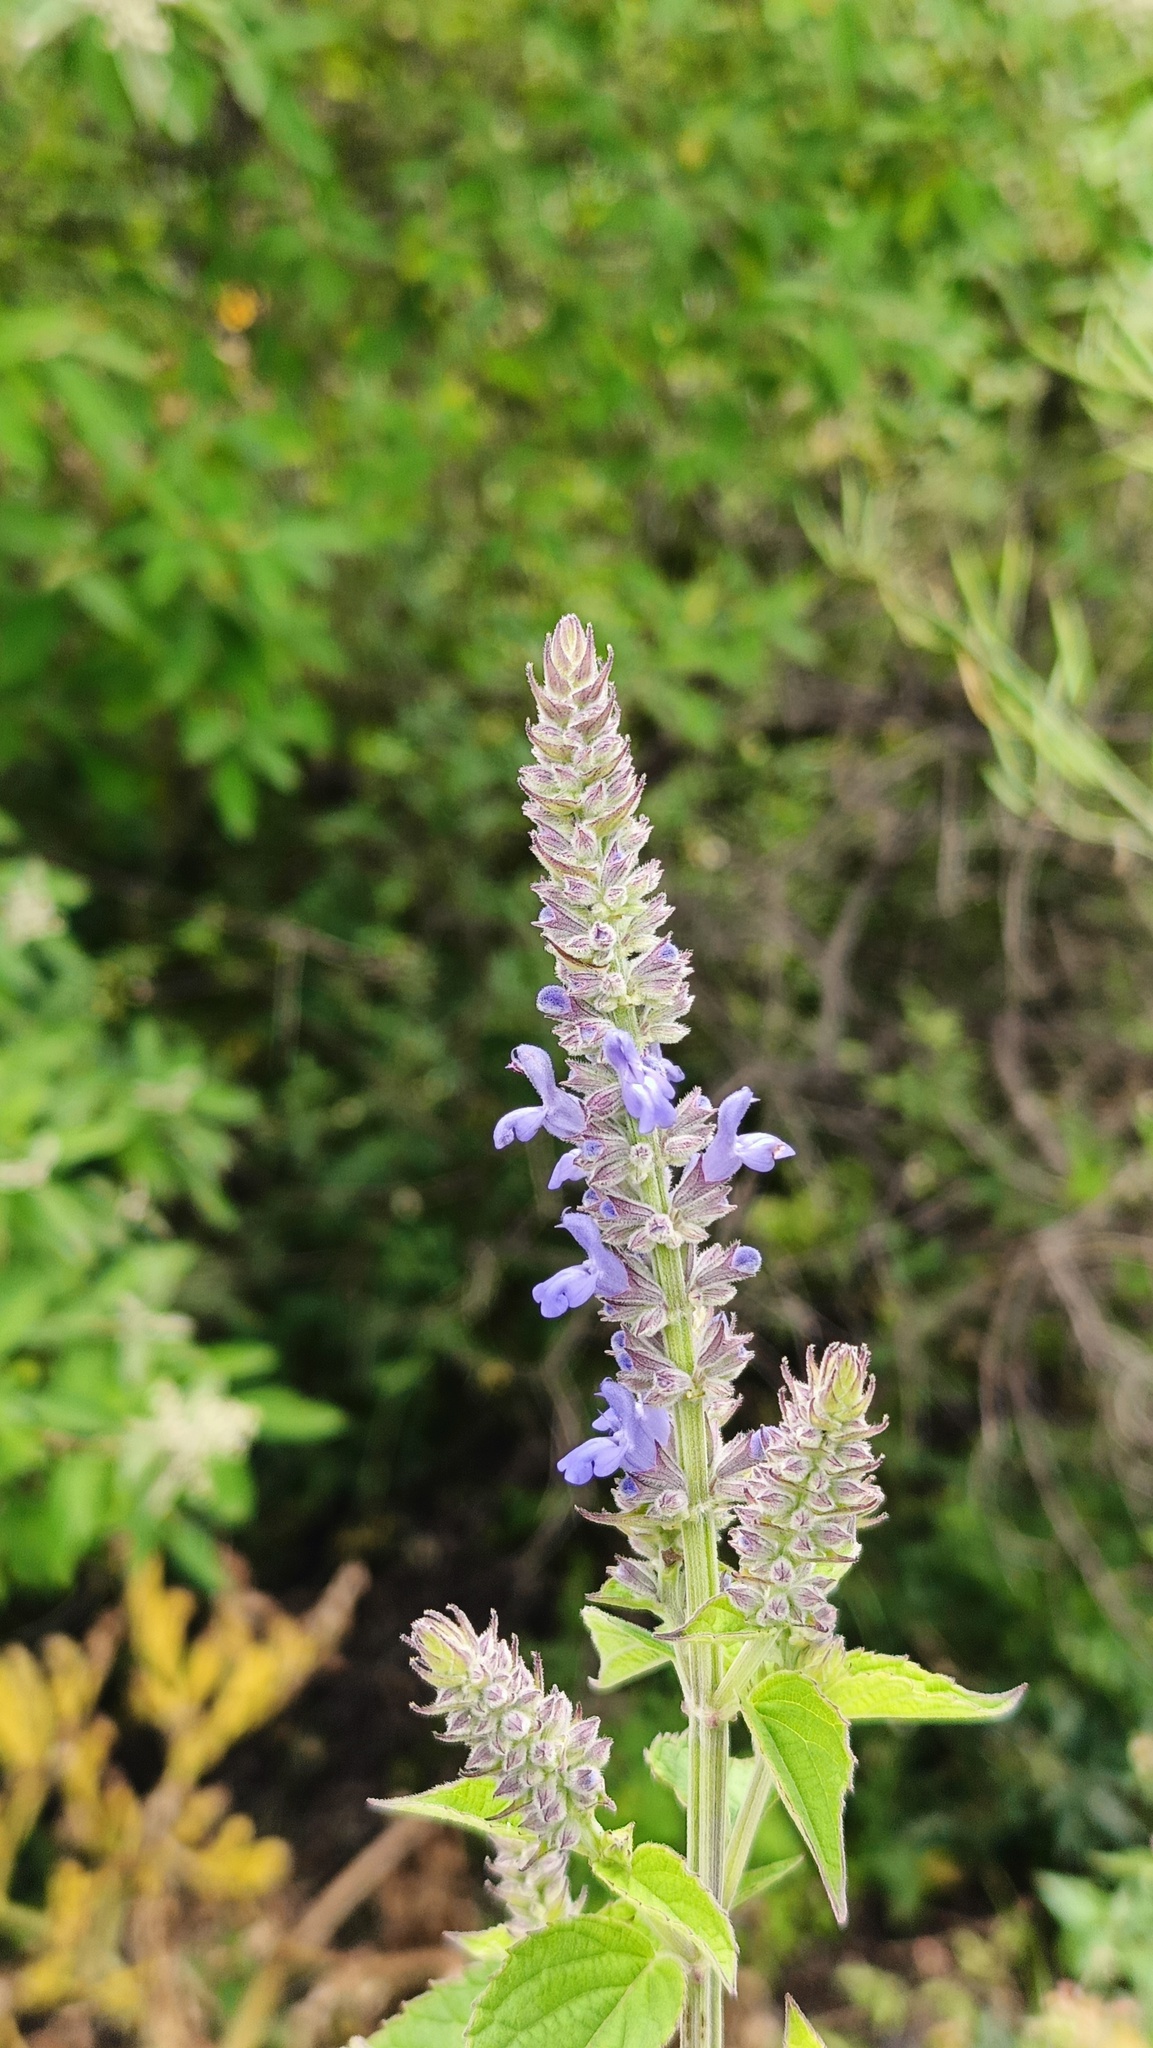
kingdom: Plantae
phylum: Tracheophyta
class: Magnoliopsida
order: Lamiales
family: Lamiaceae
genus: Salvia
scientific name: Salvia polystachia
